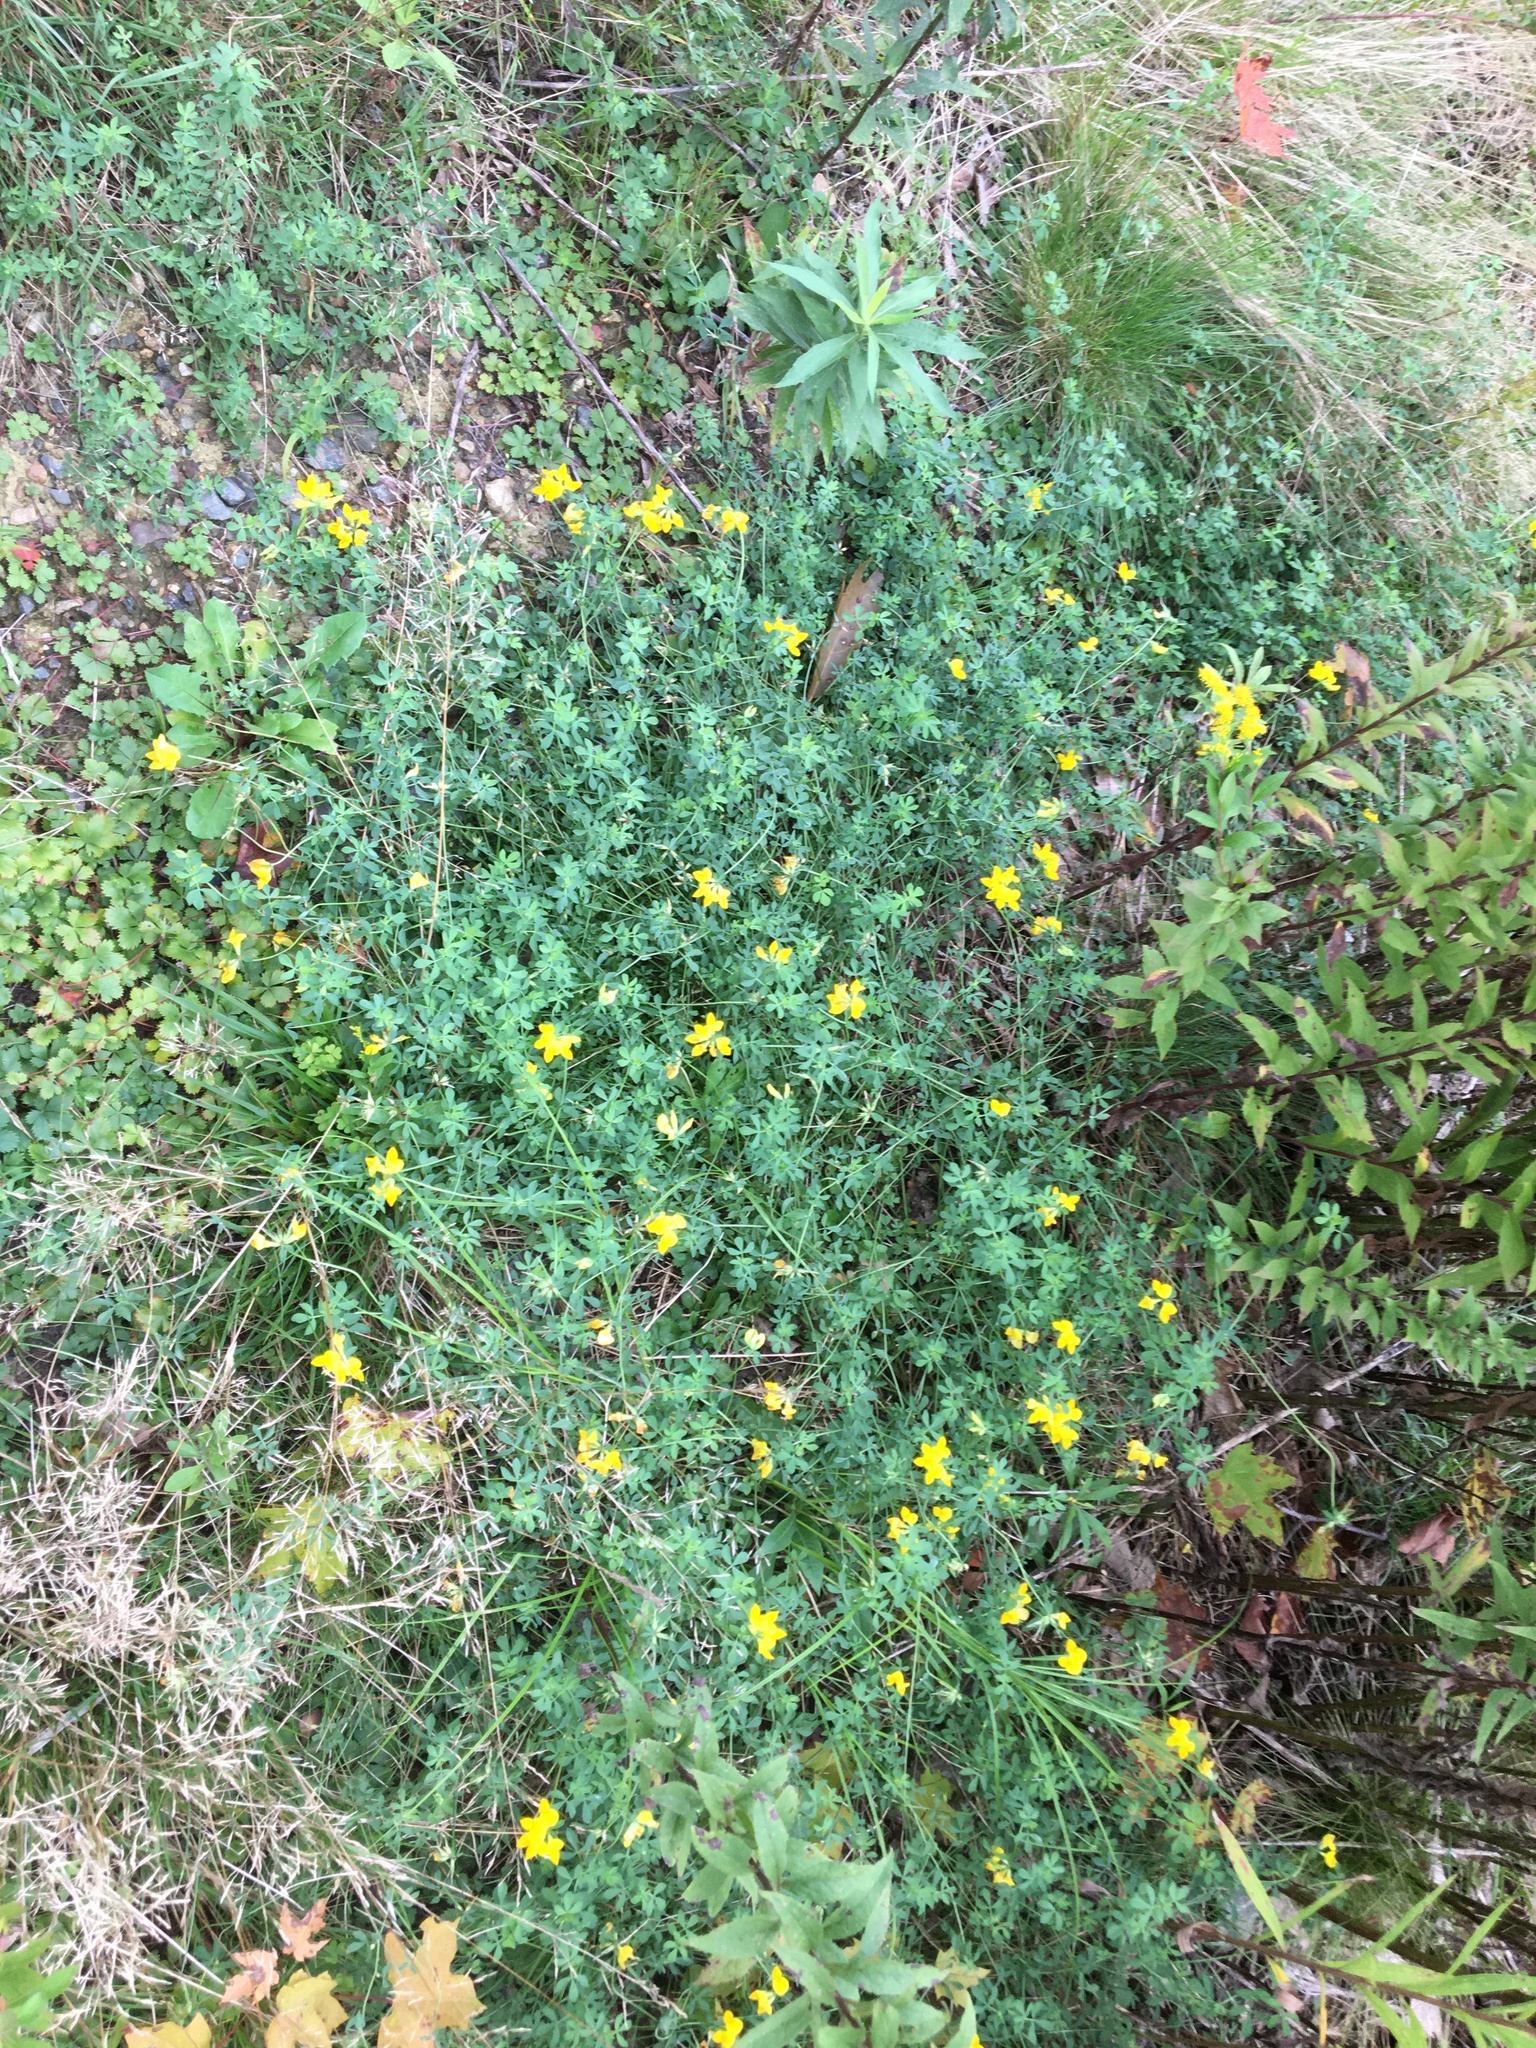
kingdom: Plantae
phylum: Tracheophyta
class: Magnoliopsida
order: Fabales
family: Fabaceae
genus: Lotus
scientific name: Lotus corniculatus
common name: Common bird's-foot-trefoil
